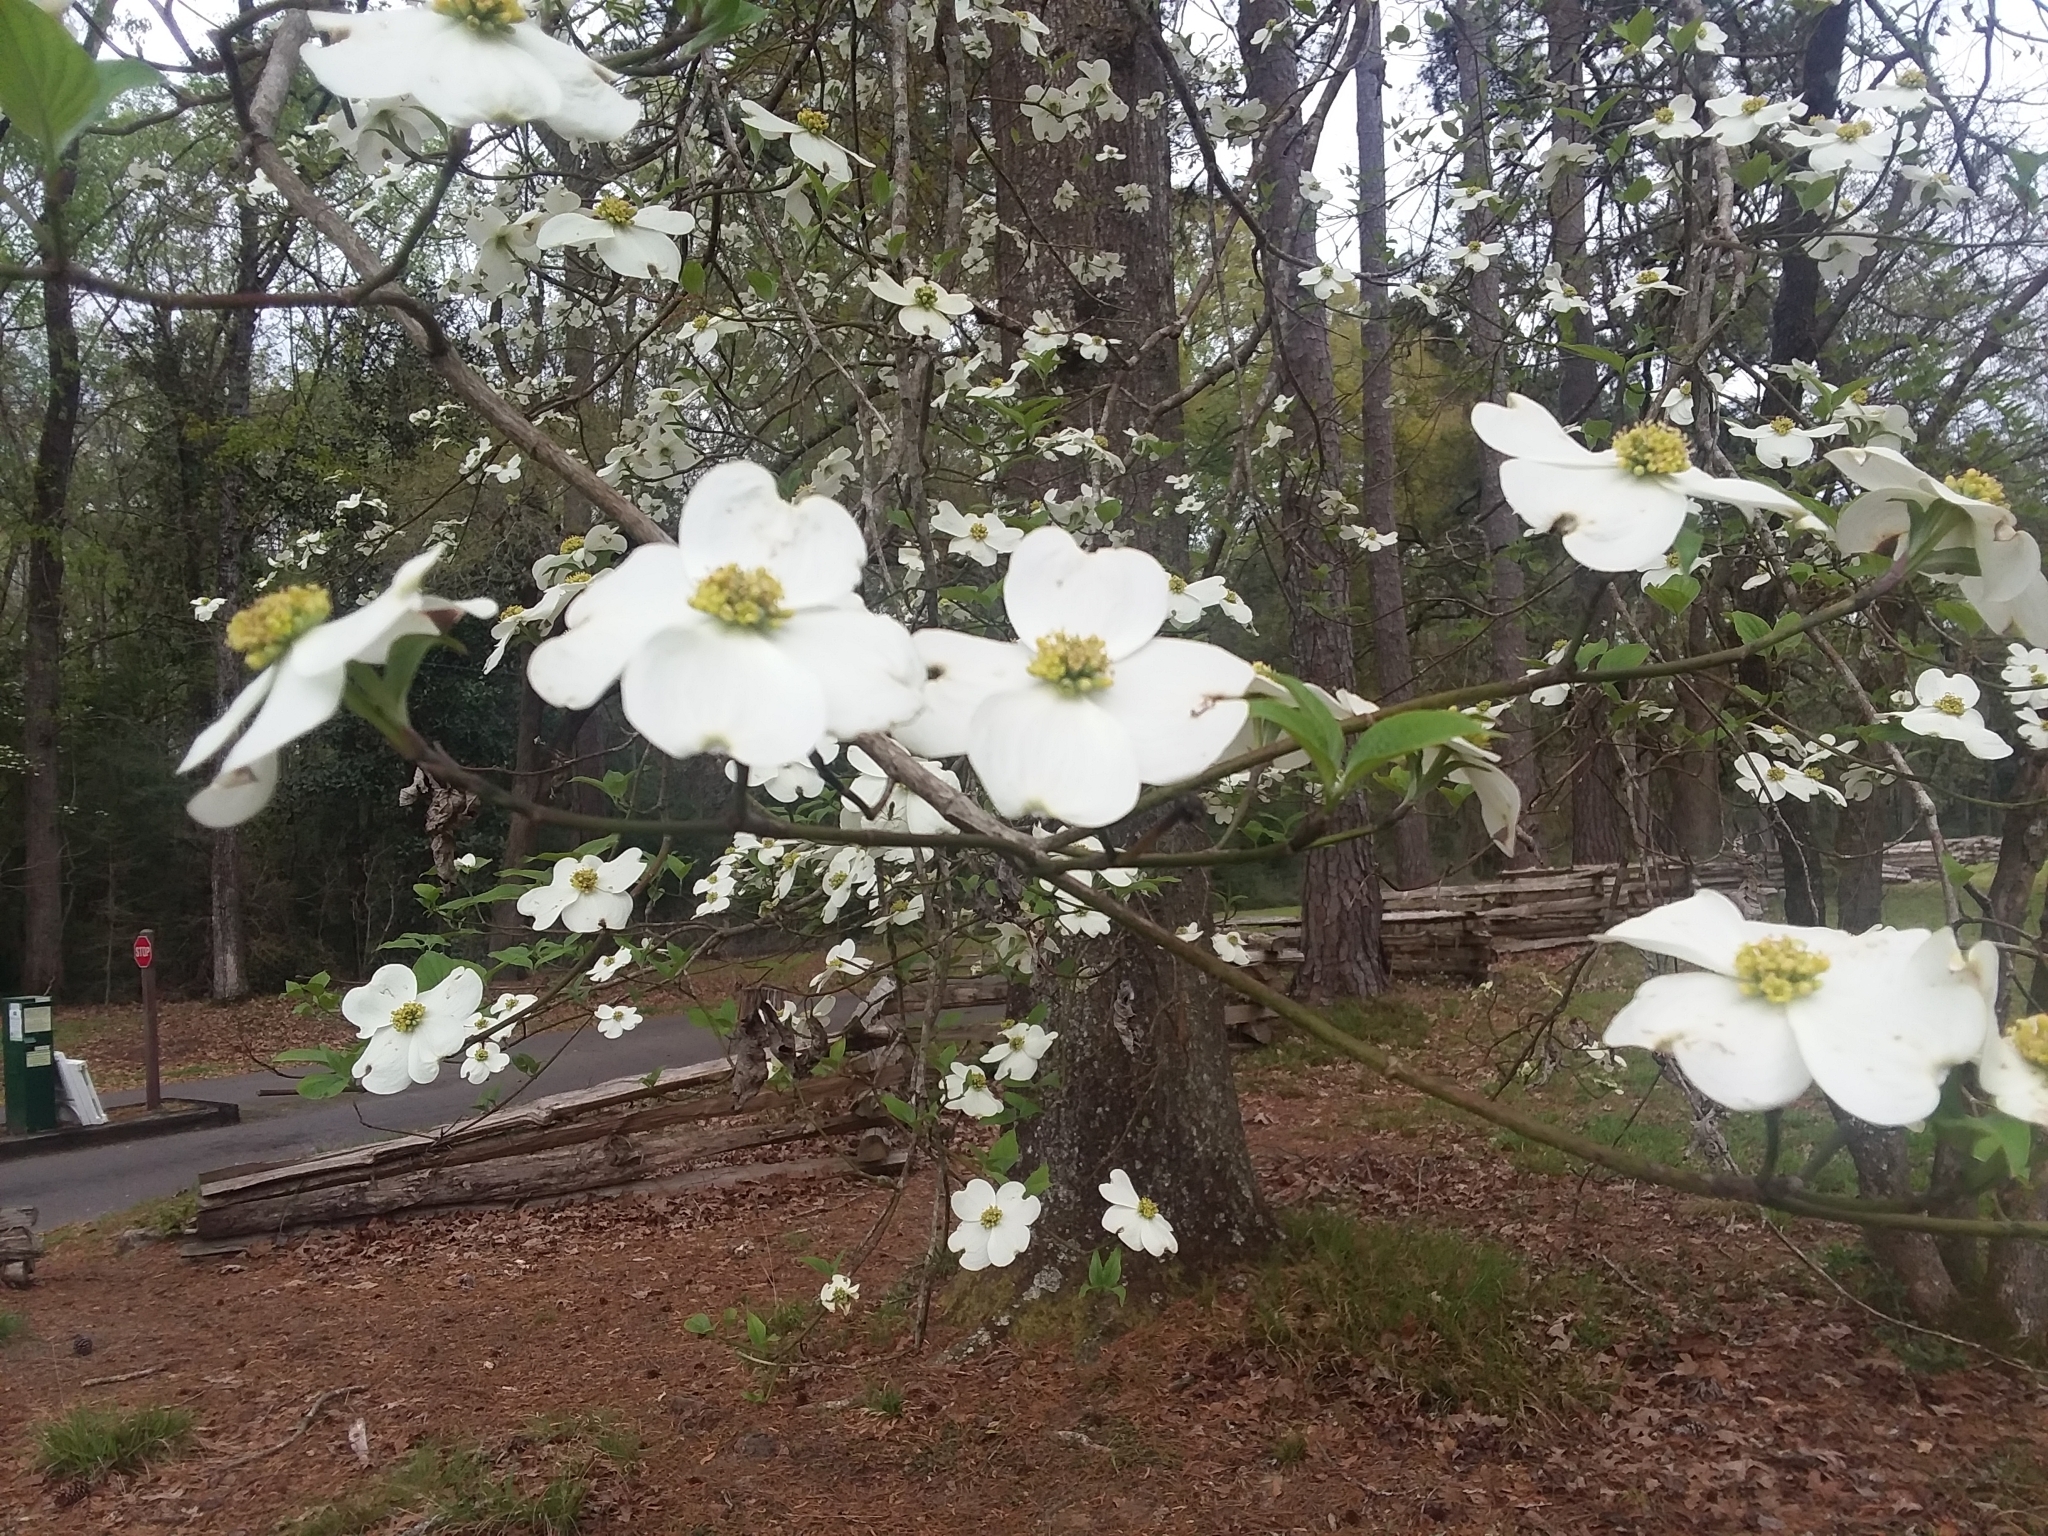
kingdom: Plantae
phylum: Tracheophyta
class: Magnoliopsida
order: Cornales
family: Cornaceae
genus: Cornus
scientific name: Cornus florida
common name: Flowering dogwood
